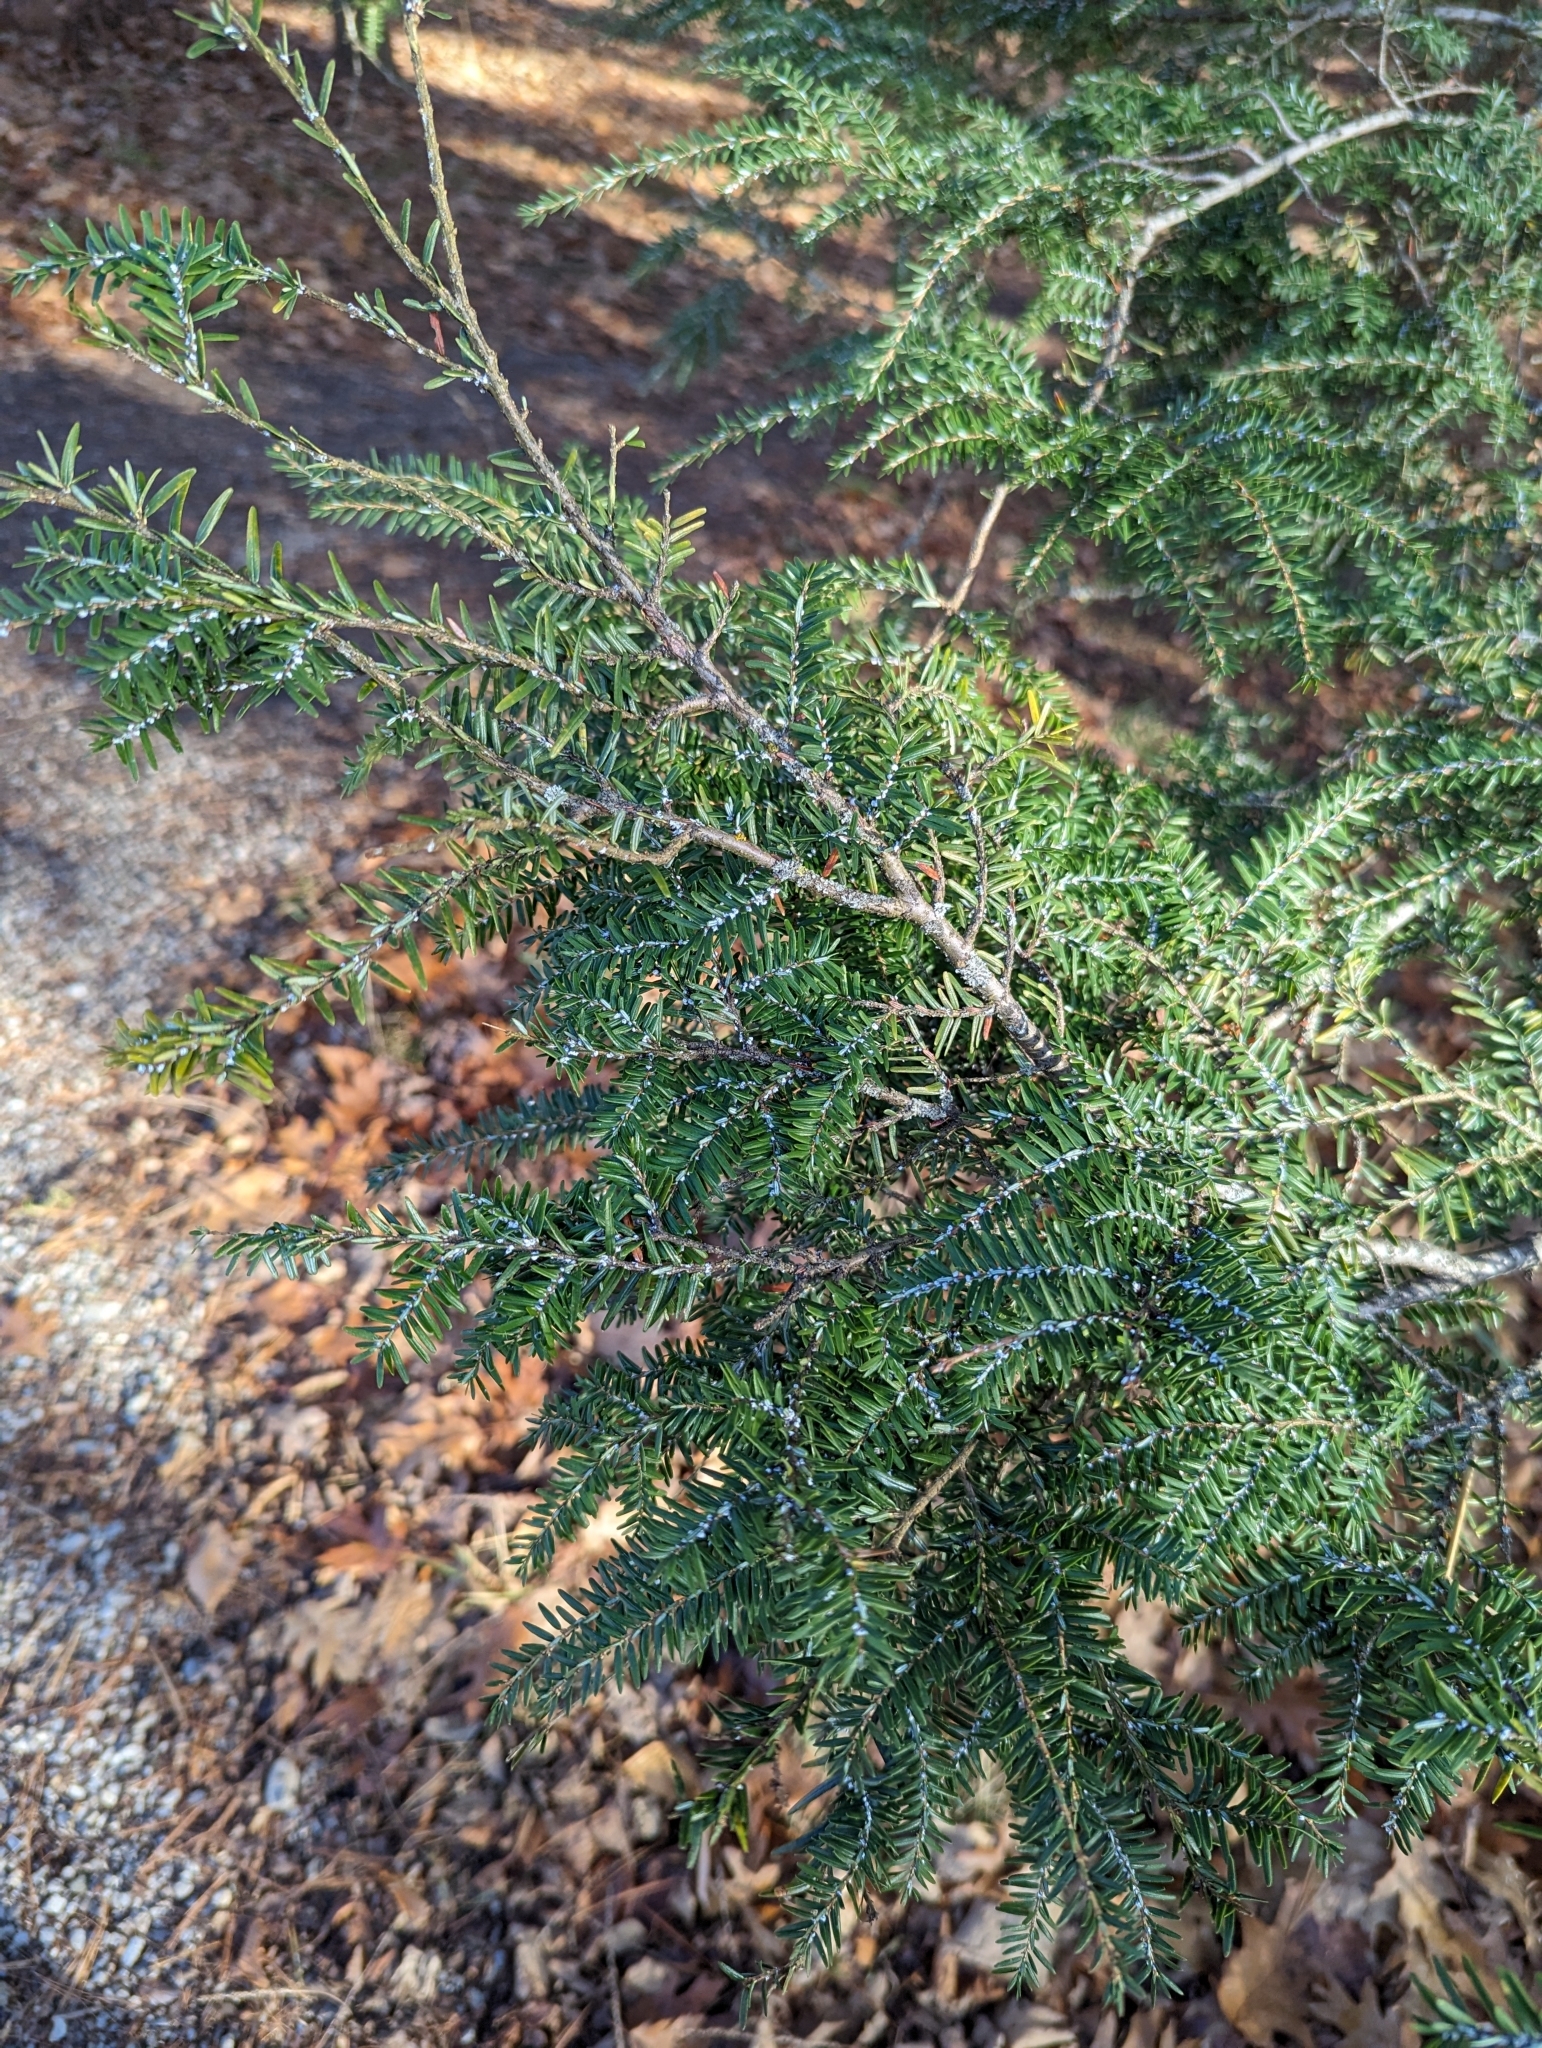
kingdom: Animalia
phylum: Arthropoda
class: Insecta
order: Hemiptera
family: Adelgidae
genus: Adelges
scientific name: Adelges tsugae
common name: Hemlock woolly adelgid
